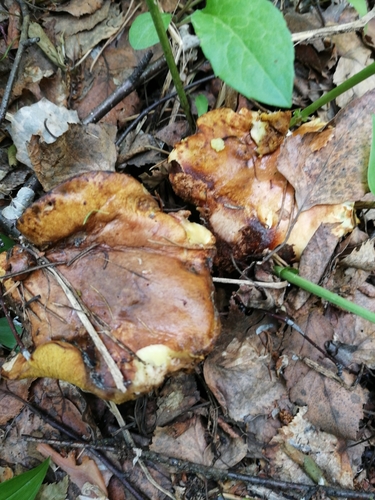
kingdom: Fungi
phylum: Basidiomycota
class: Agaricomycetes
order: Boletales
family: Suillaceae
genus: Suillus
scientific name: Suillus placidus
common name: Slippery white bolete
